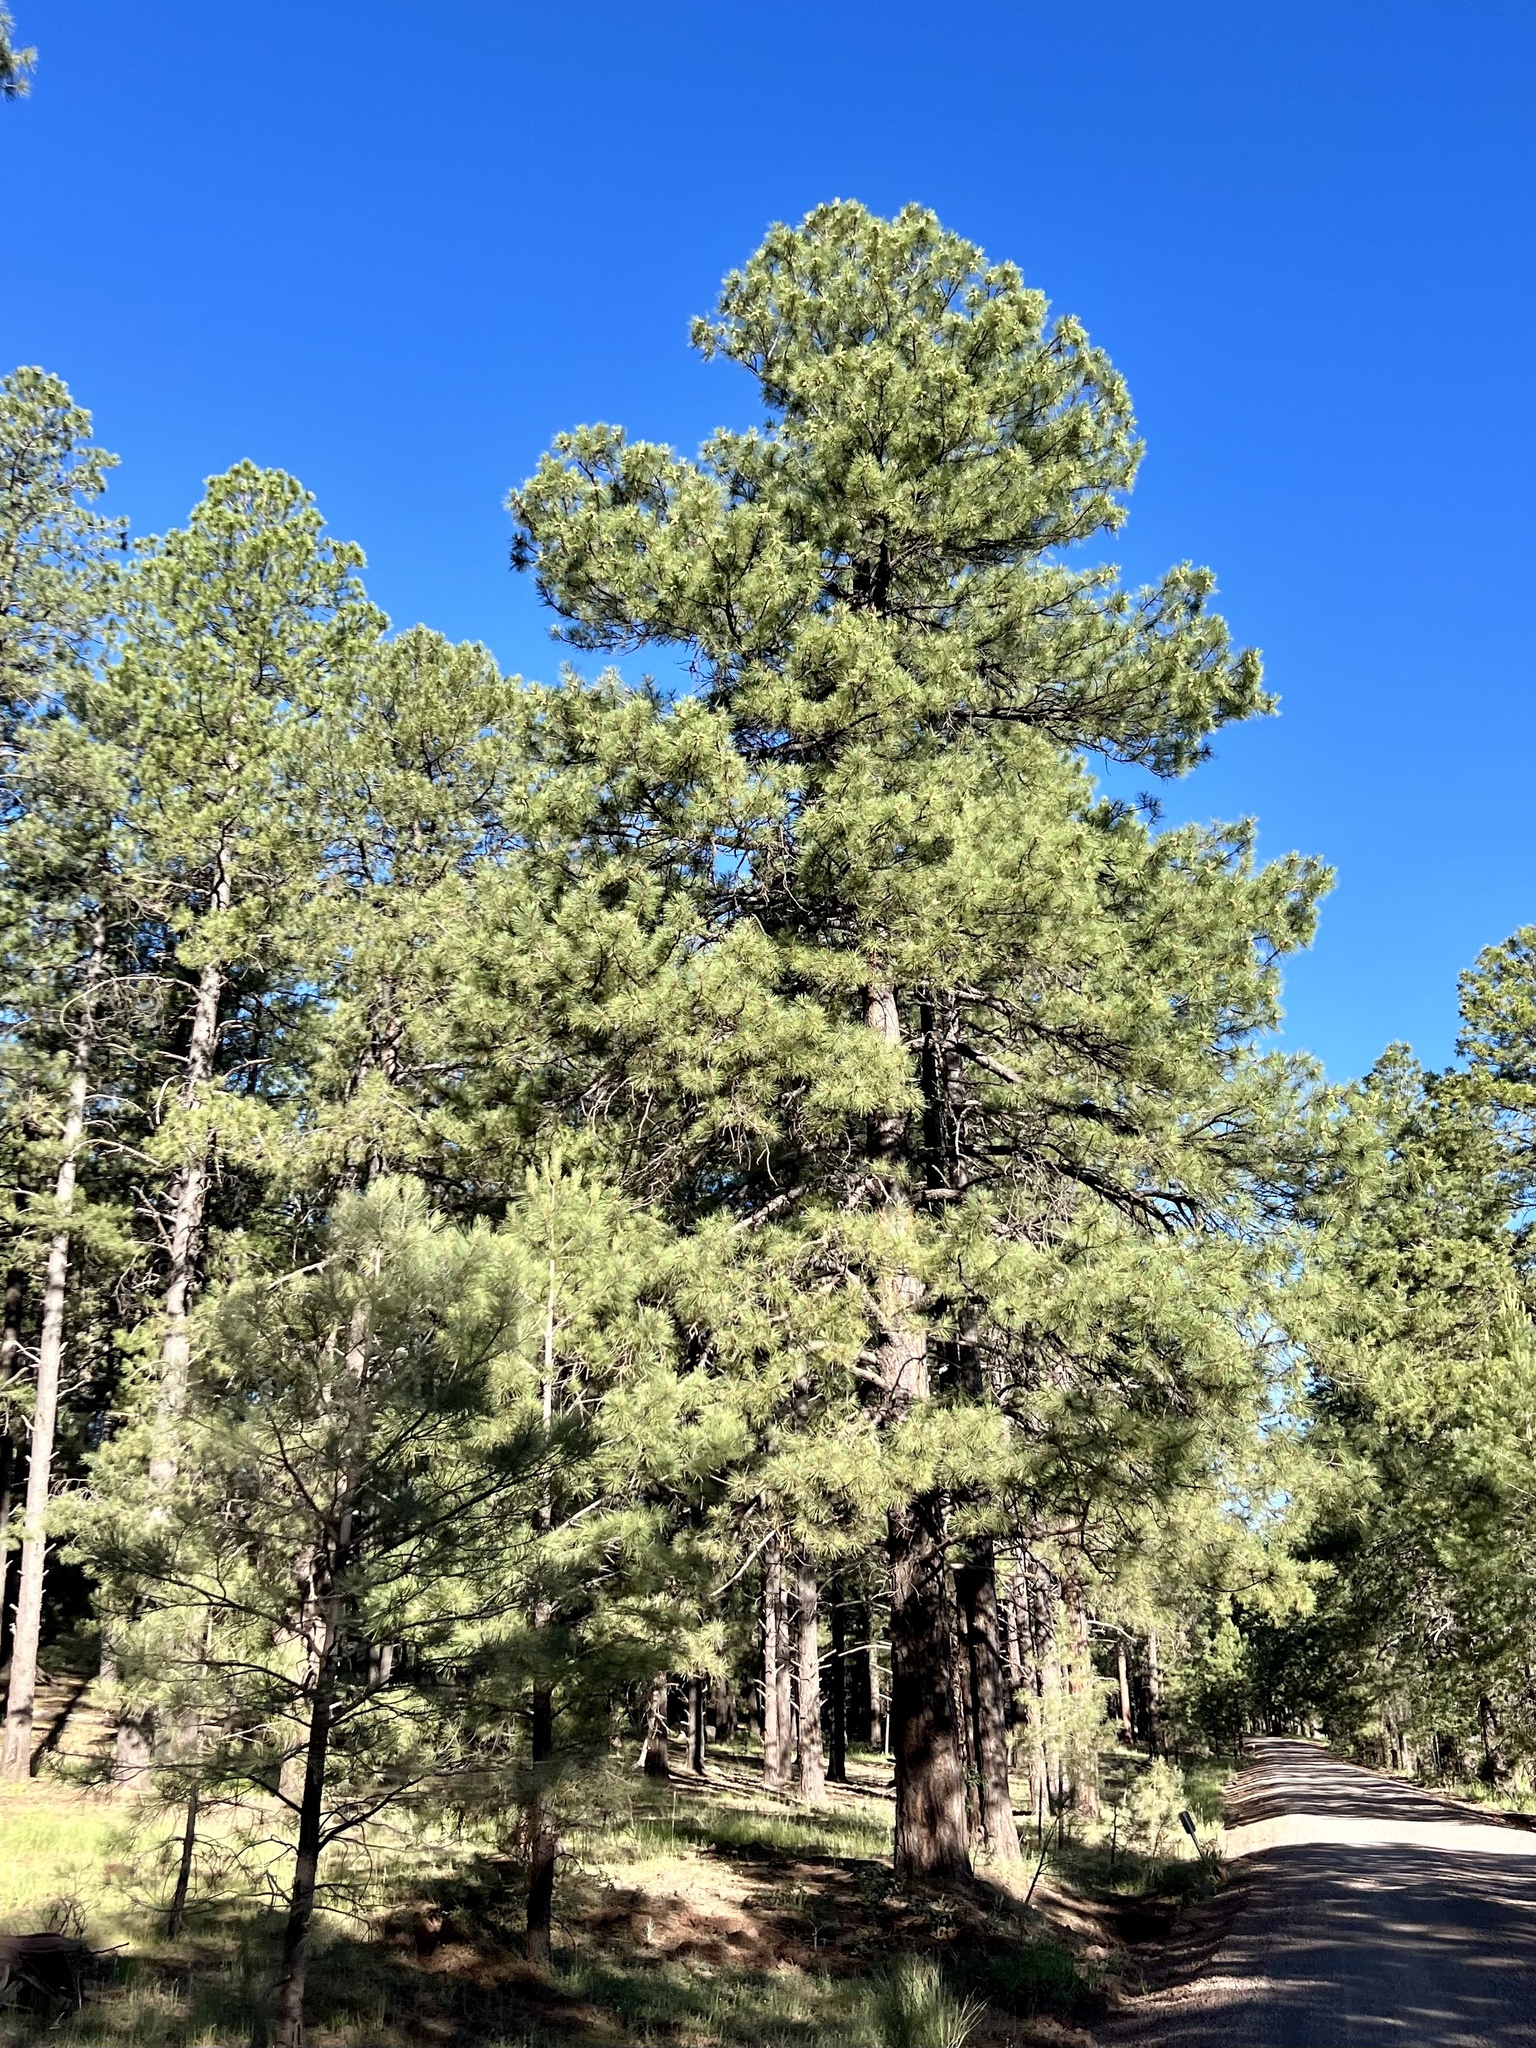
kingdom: Plantae
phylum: Tracheophyta
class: Pinopsida
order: Pinales
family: Pinaceae
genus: Pinus
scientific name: Pinus ponderosa
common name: Western yellow-pine
